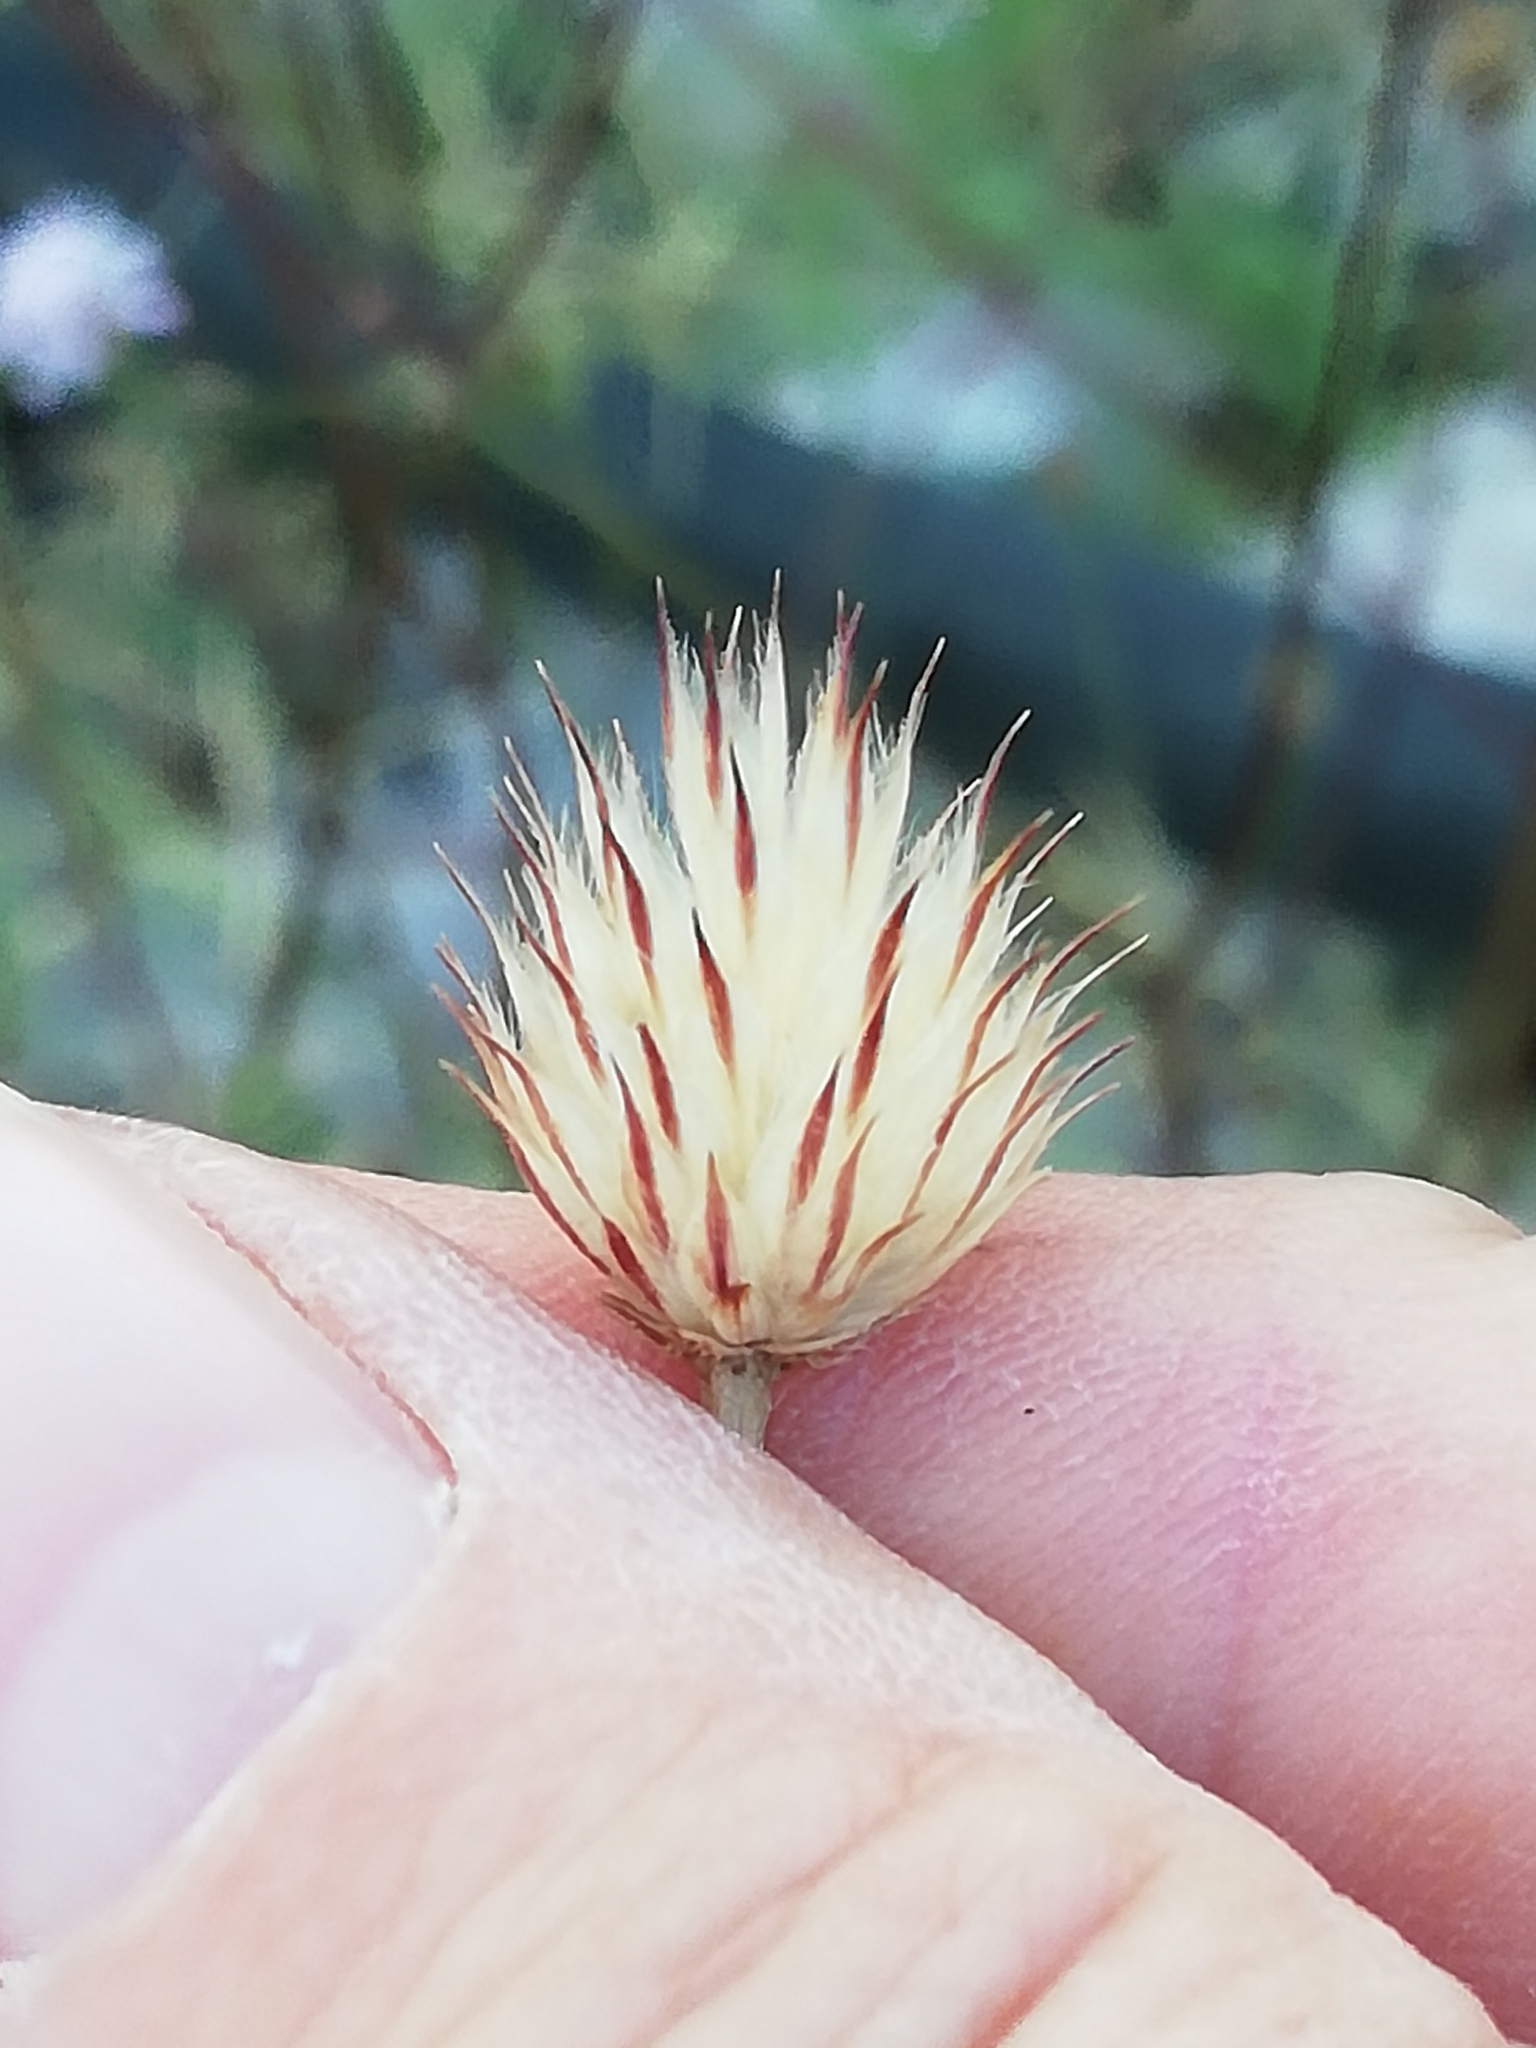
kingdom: Plantae
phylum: Tracheophyta
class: Magnoliopsida
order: Dipsacales
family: Caprifoliaceae
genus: Cephalaria
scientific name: Cephalaria transsylvanica
